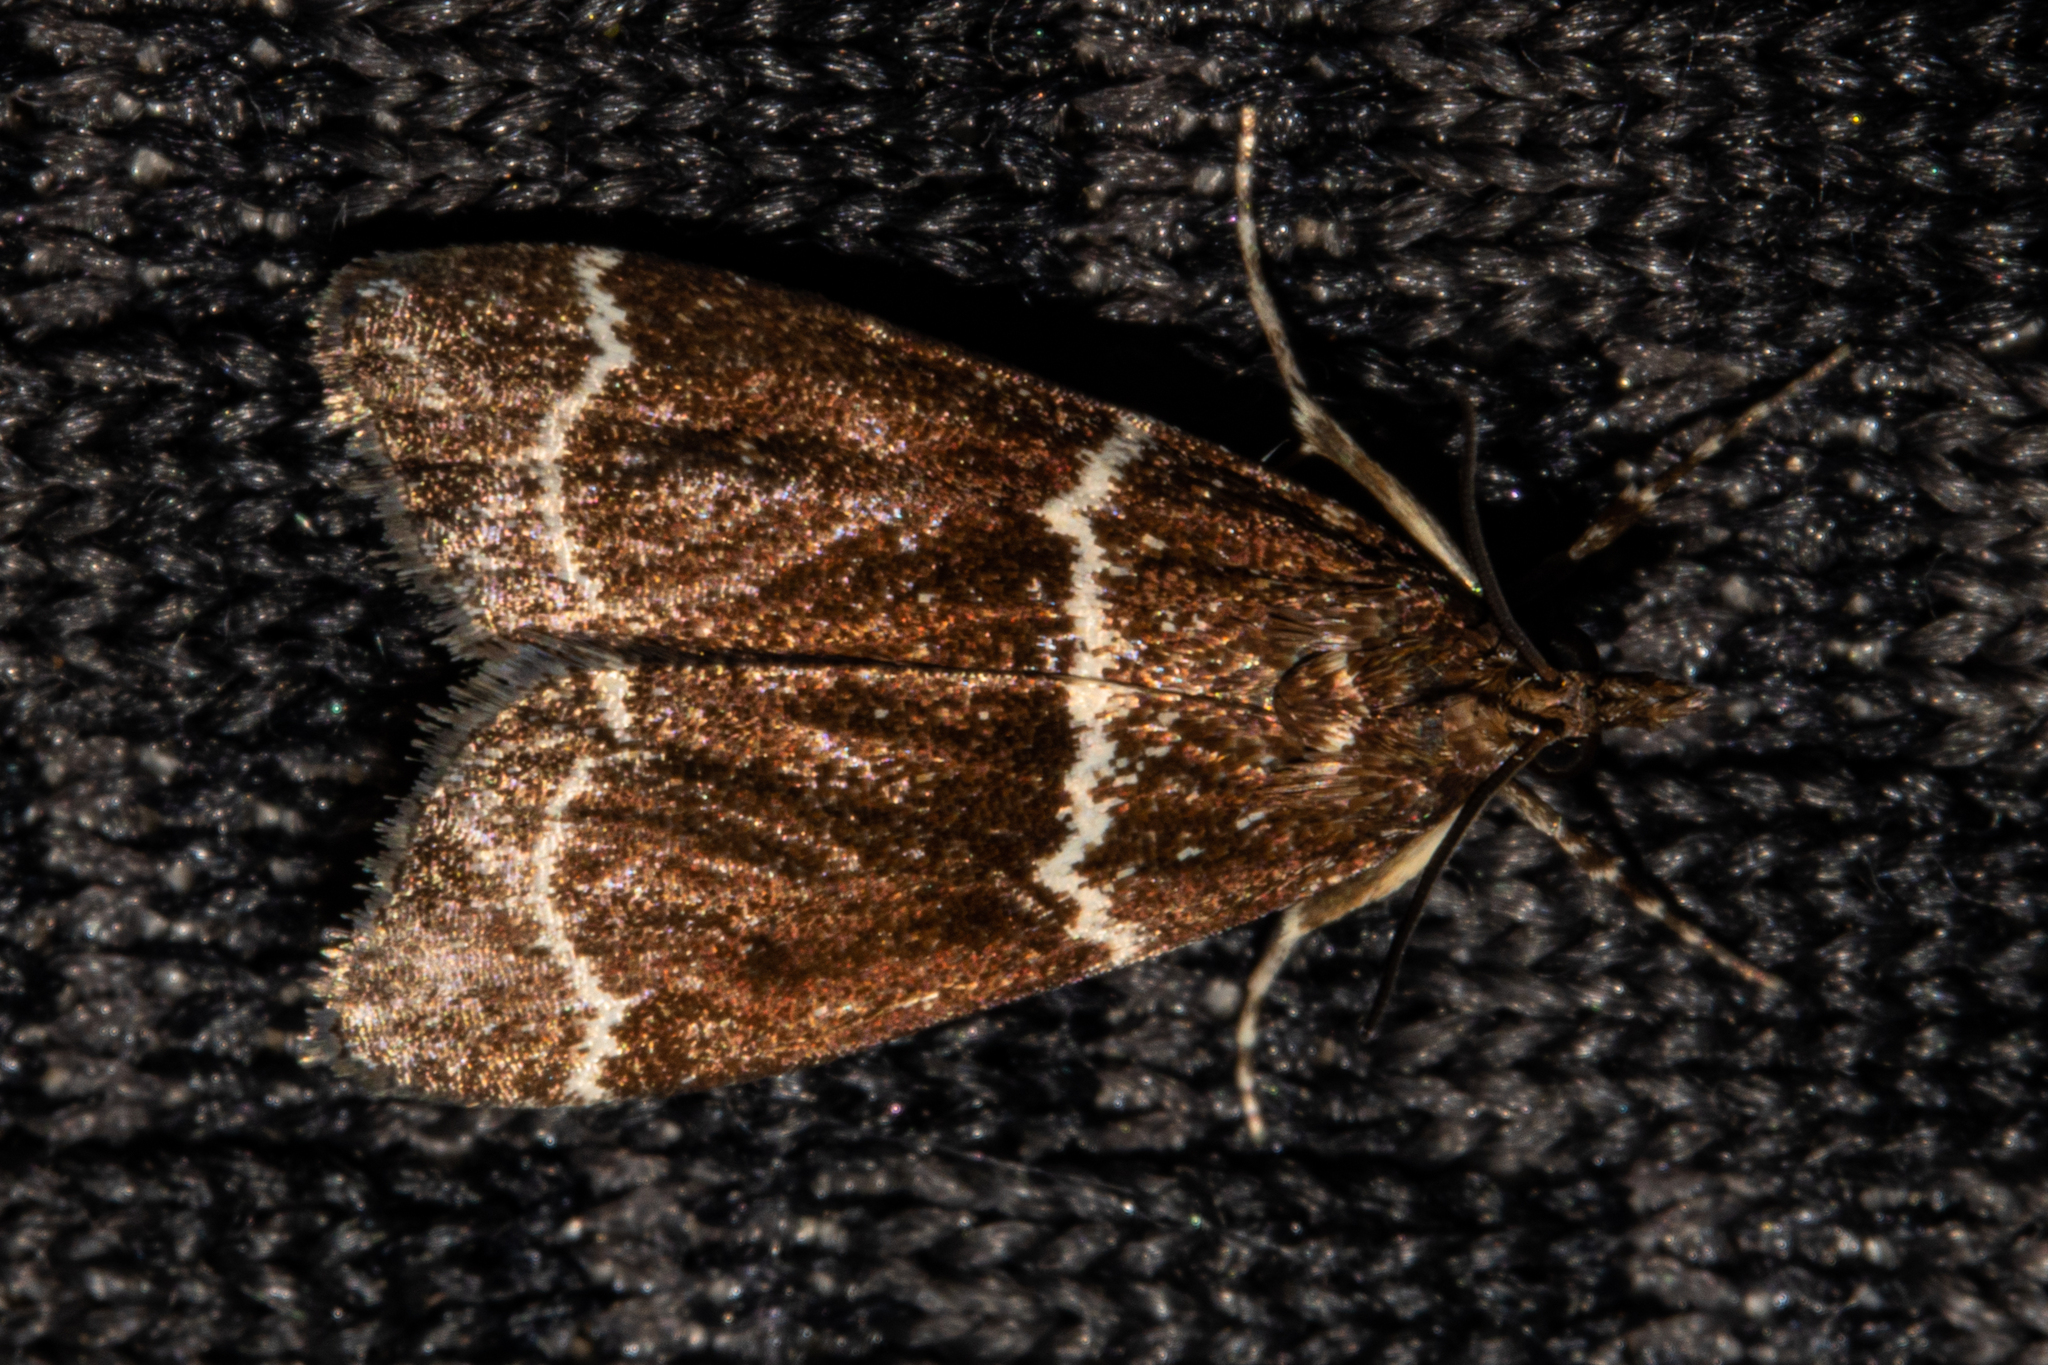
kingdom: Animalia
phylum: Arthropoda
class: Insecta
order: Lepidoptera
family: Crambidae
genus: Eudonia
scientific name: Eudonia leucogramma
